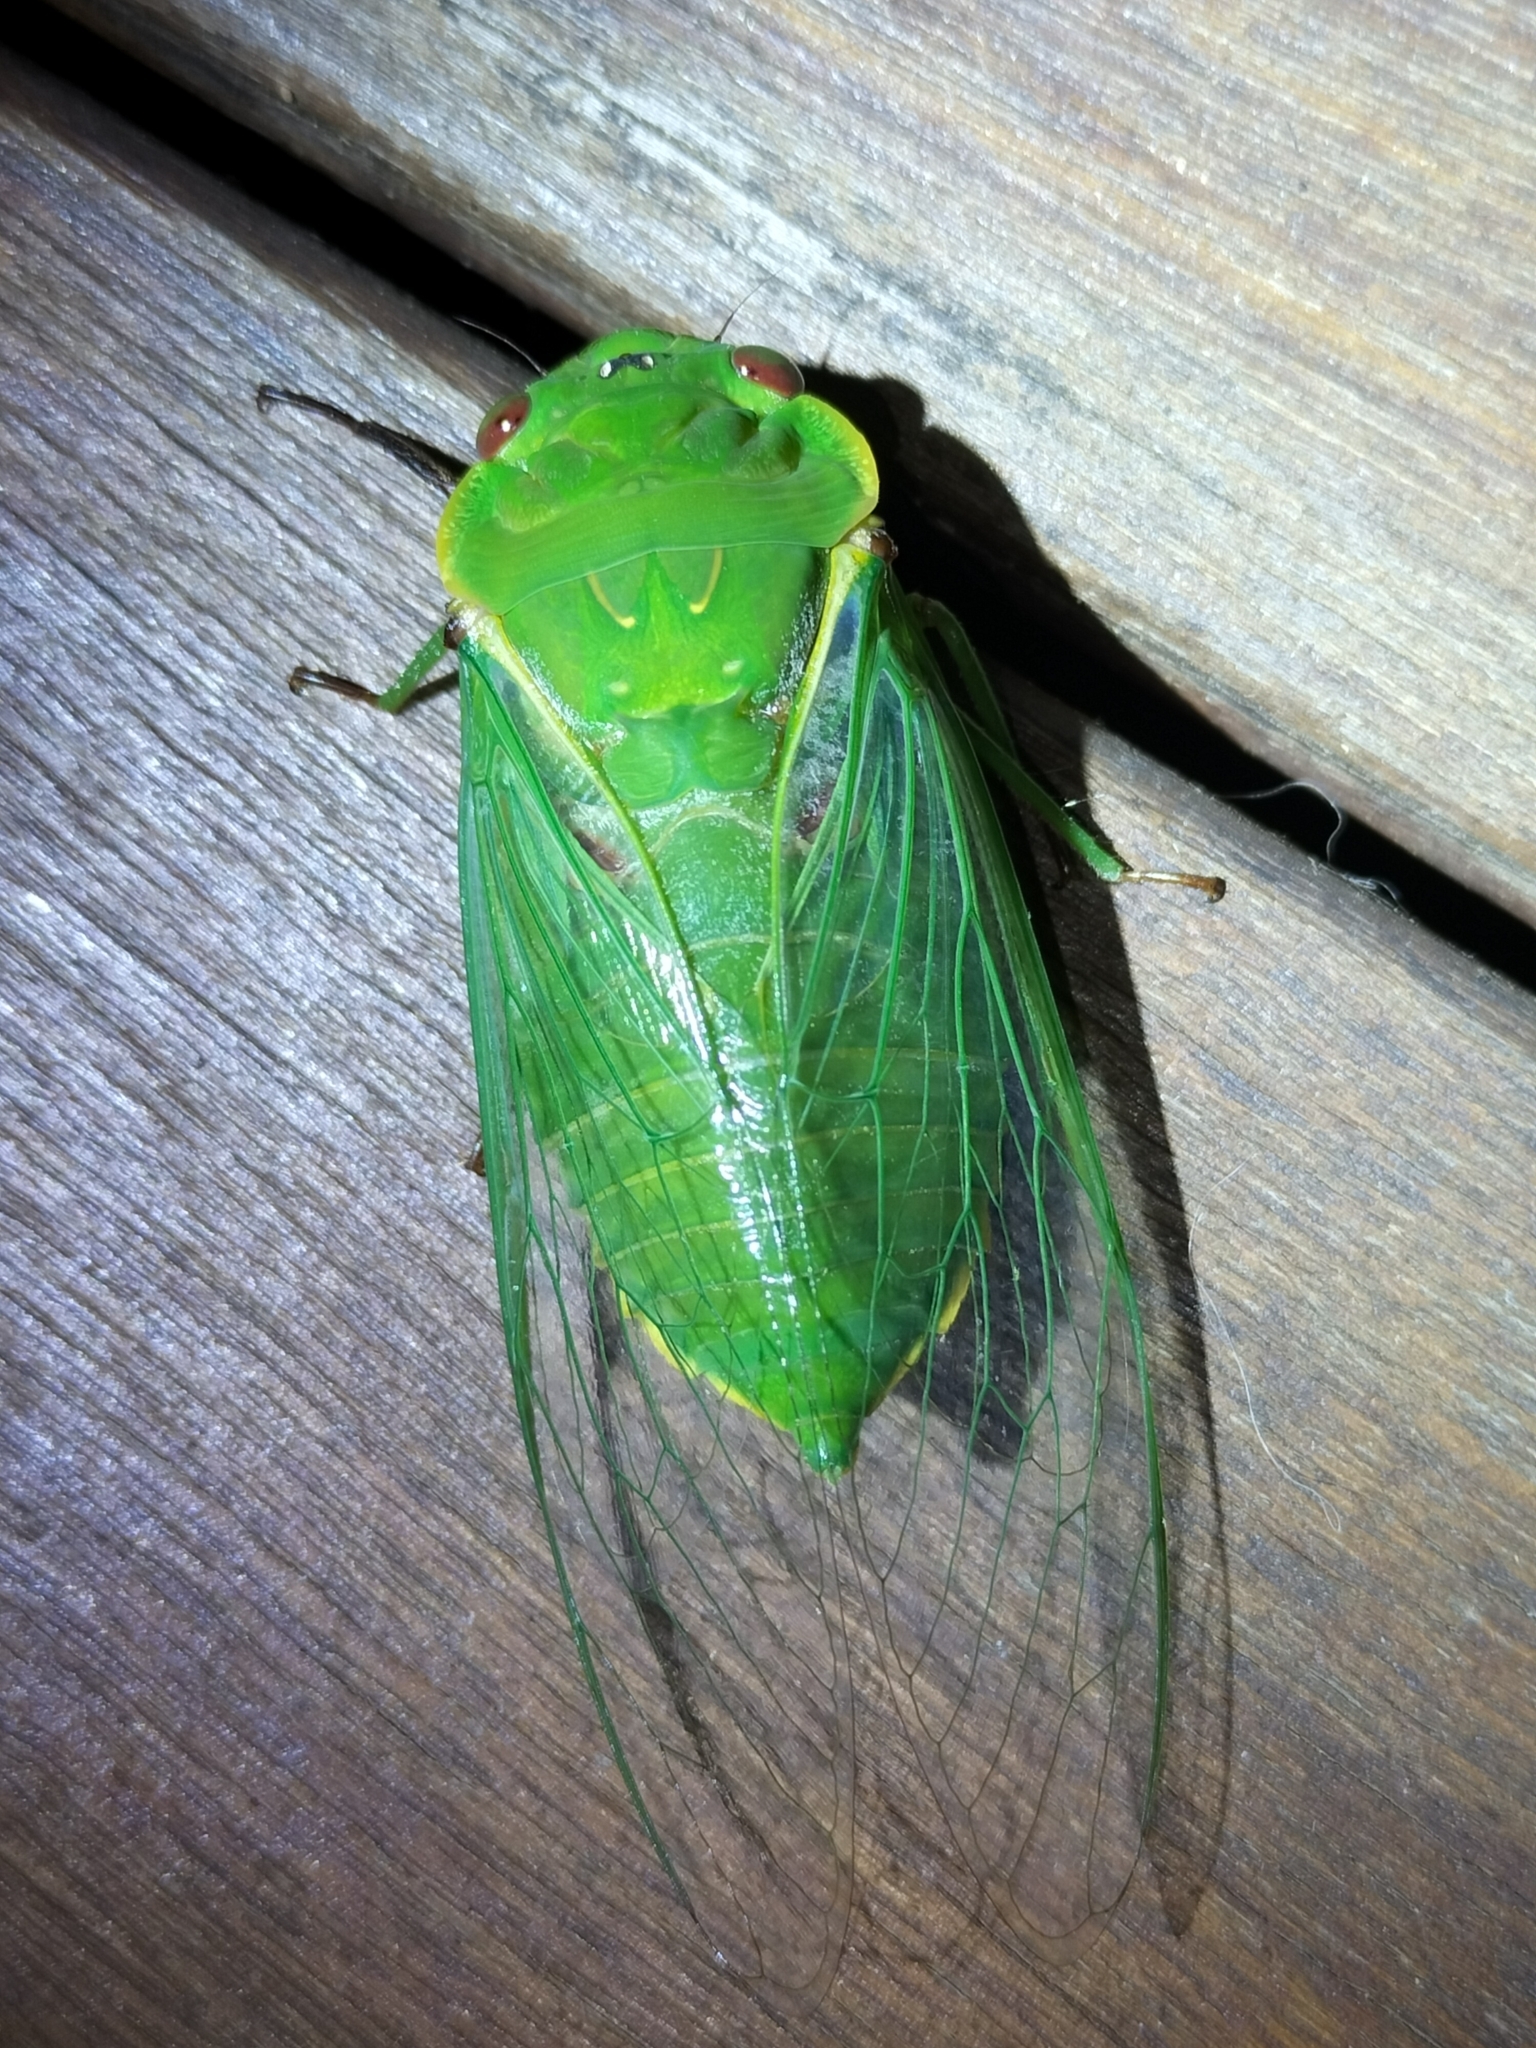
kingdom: Animalia
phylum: Arthropoda
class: Insecta
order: Hemiptera
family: Cicadidae
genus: Cyclochila
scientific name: Cyclochila virens
